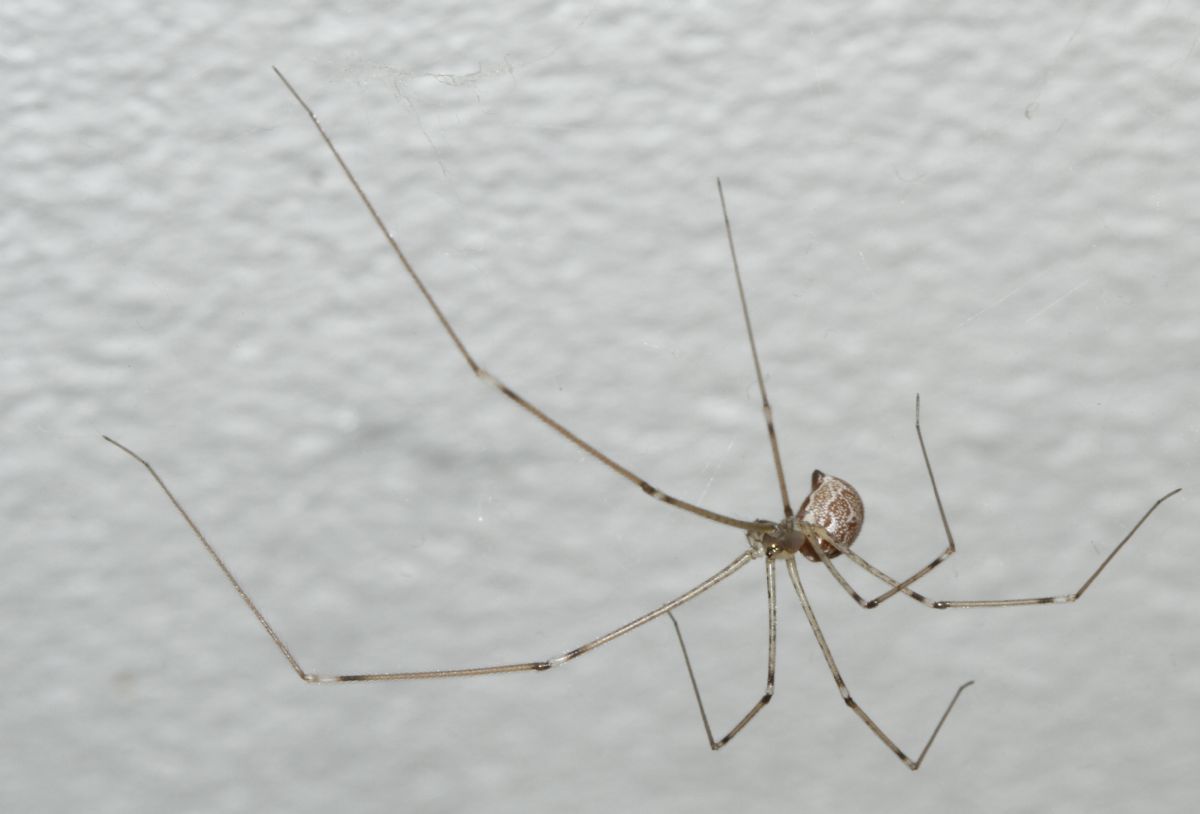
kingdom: Animalia
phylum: Arthropoda
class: Arachnida
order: Araneae
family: Pholcidae
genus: Holocnemus
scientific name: Holocnemus pluchei
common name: Marbled cellar spider
